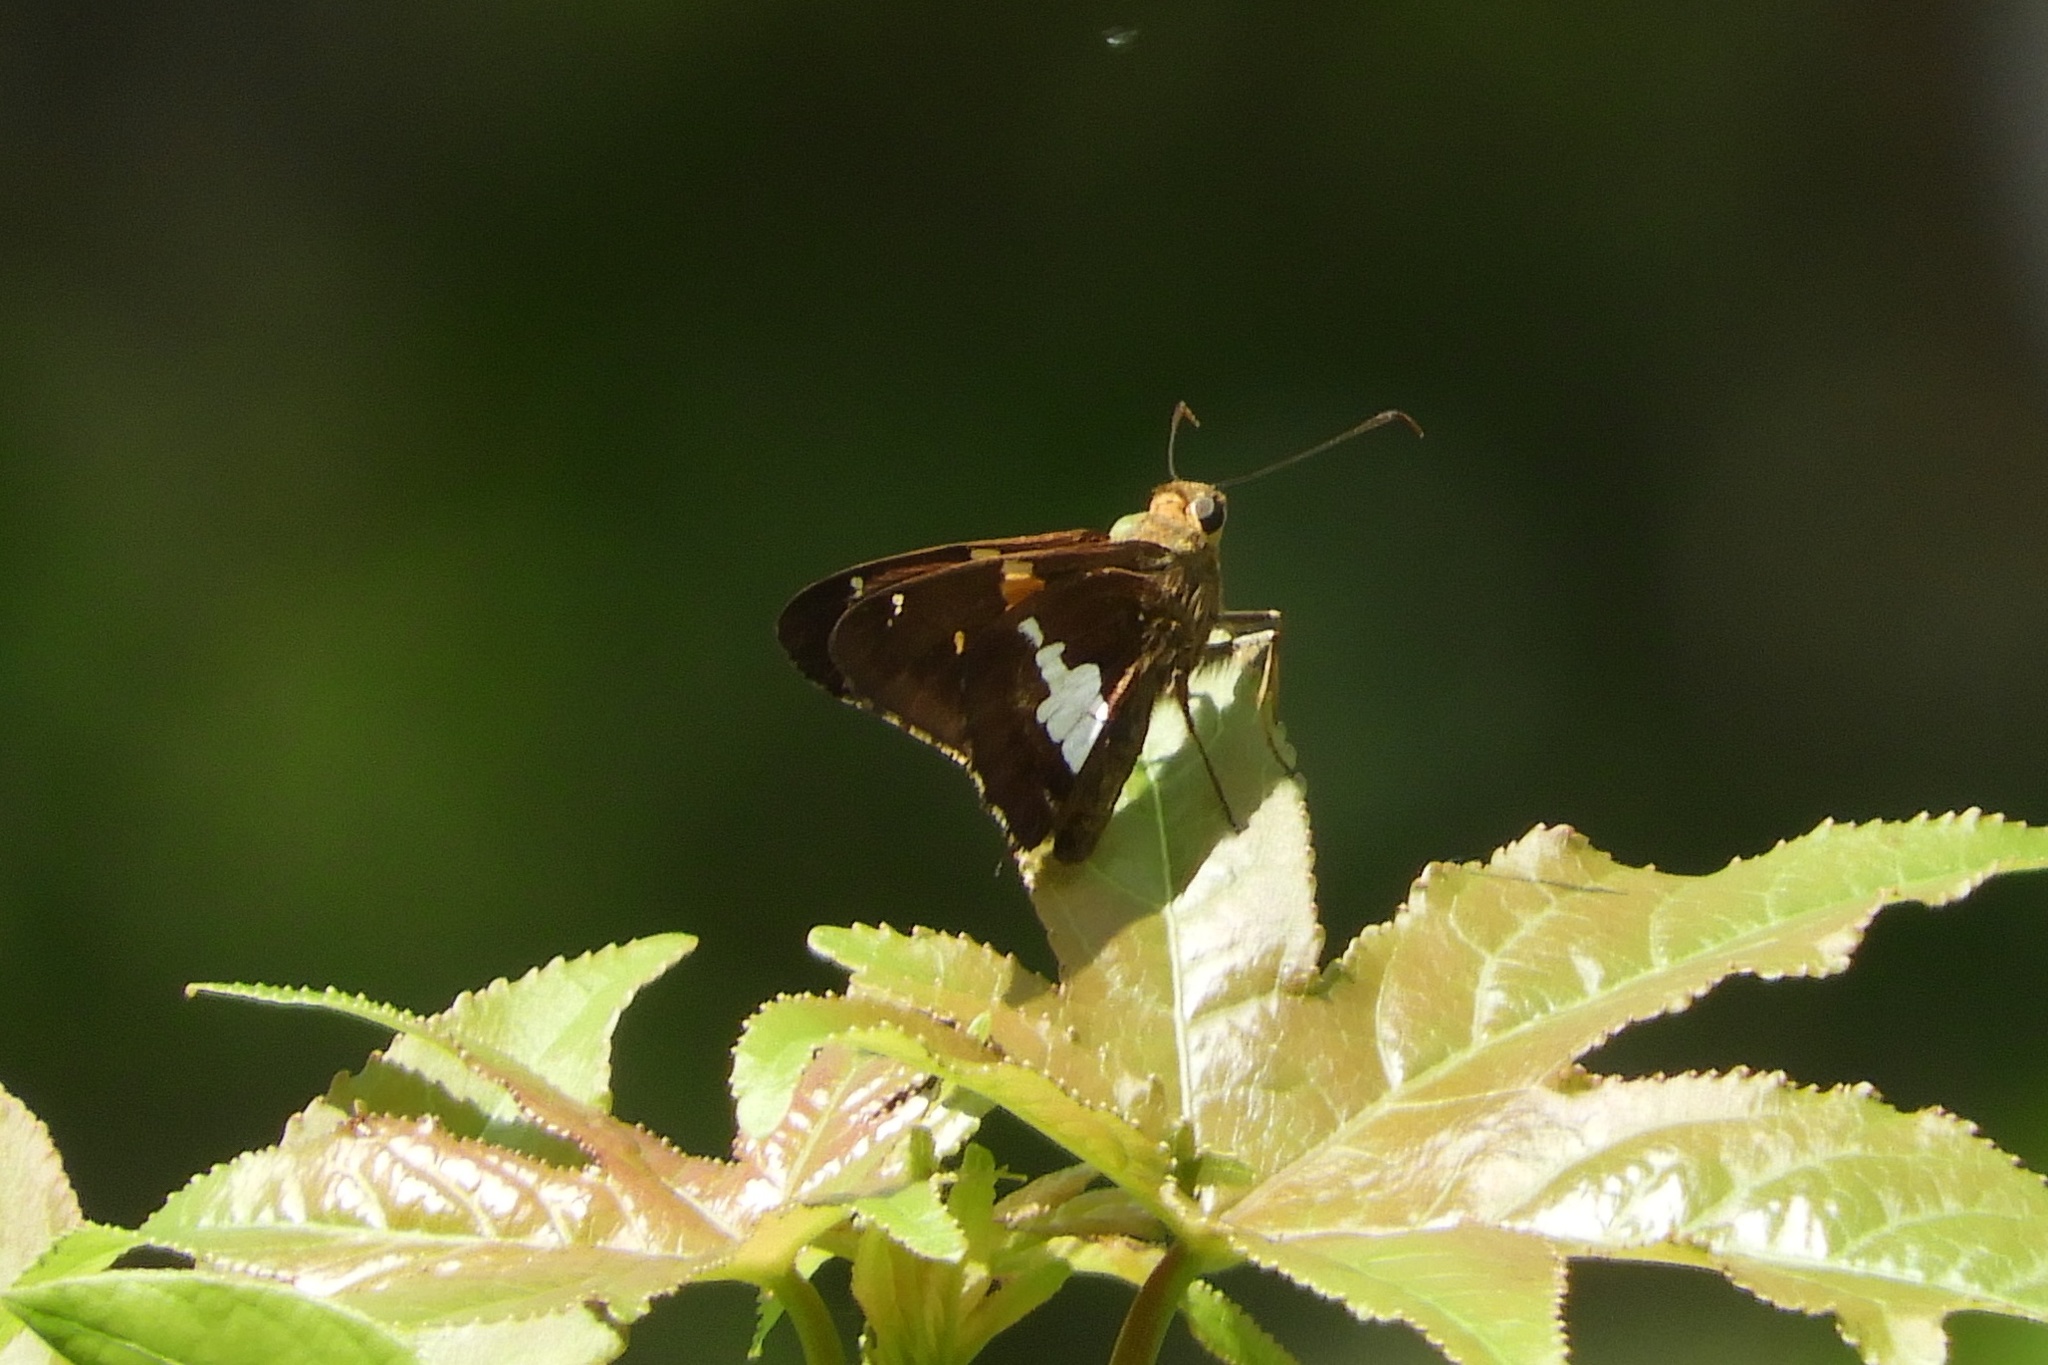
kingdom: Animalia
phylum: Arthropoda
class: Insecta
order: Lepidoptera
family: Hesperiidae
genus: Epargyreus
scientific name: Epargyreus clarus
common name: Silver-spotted skipper
